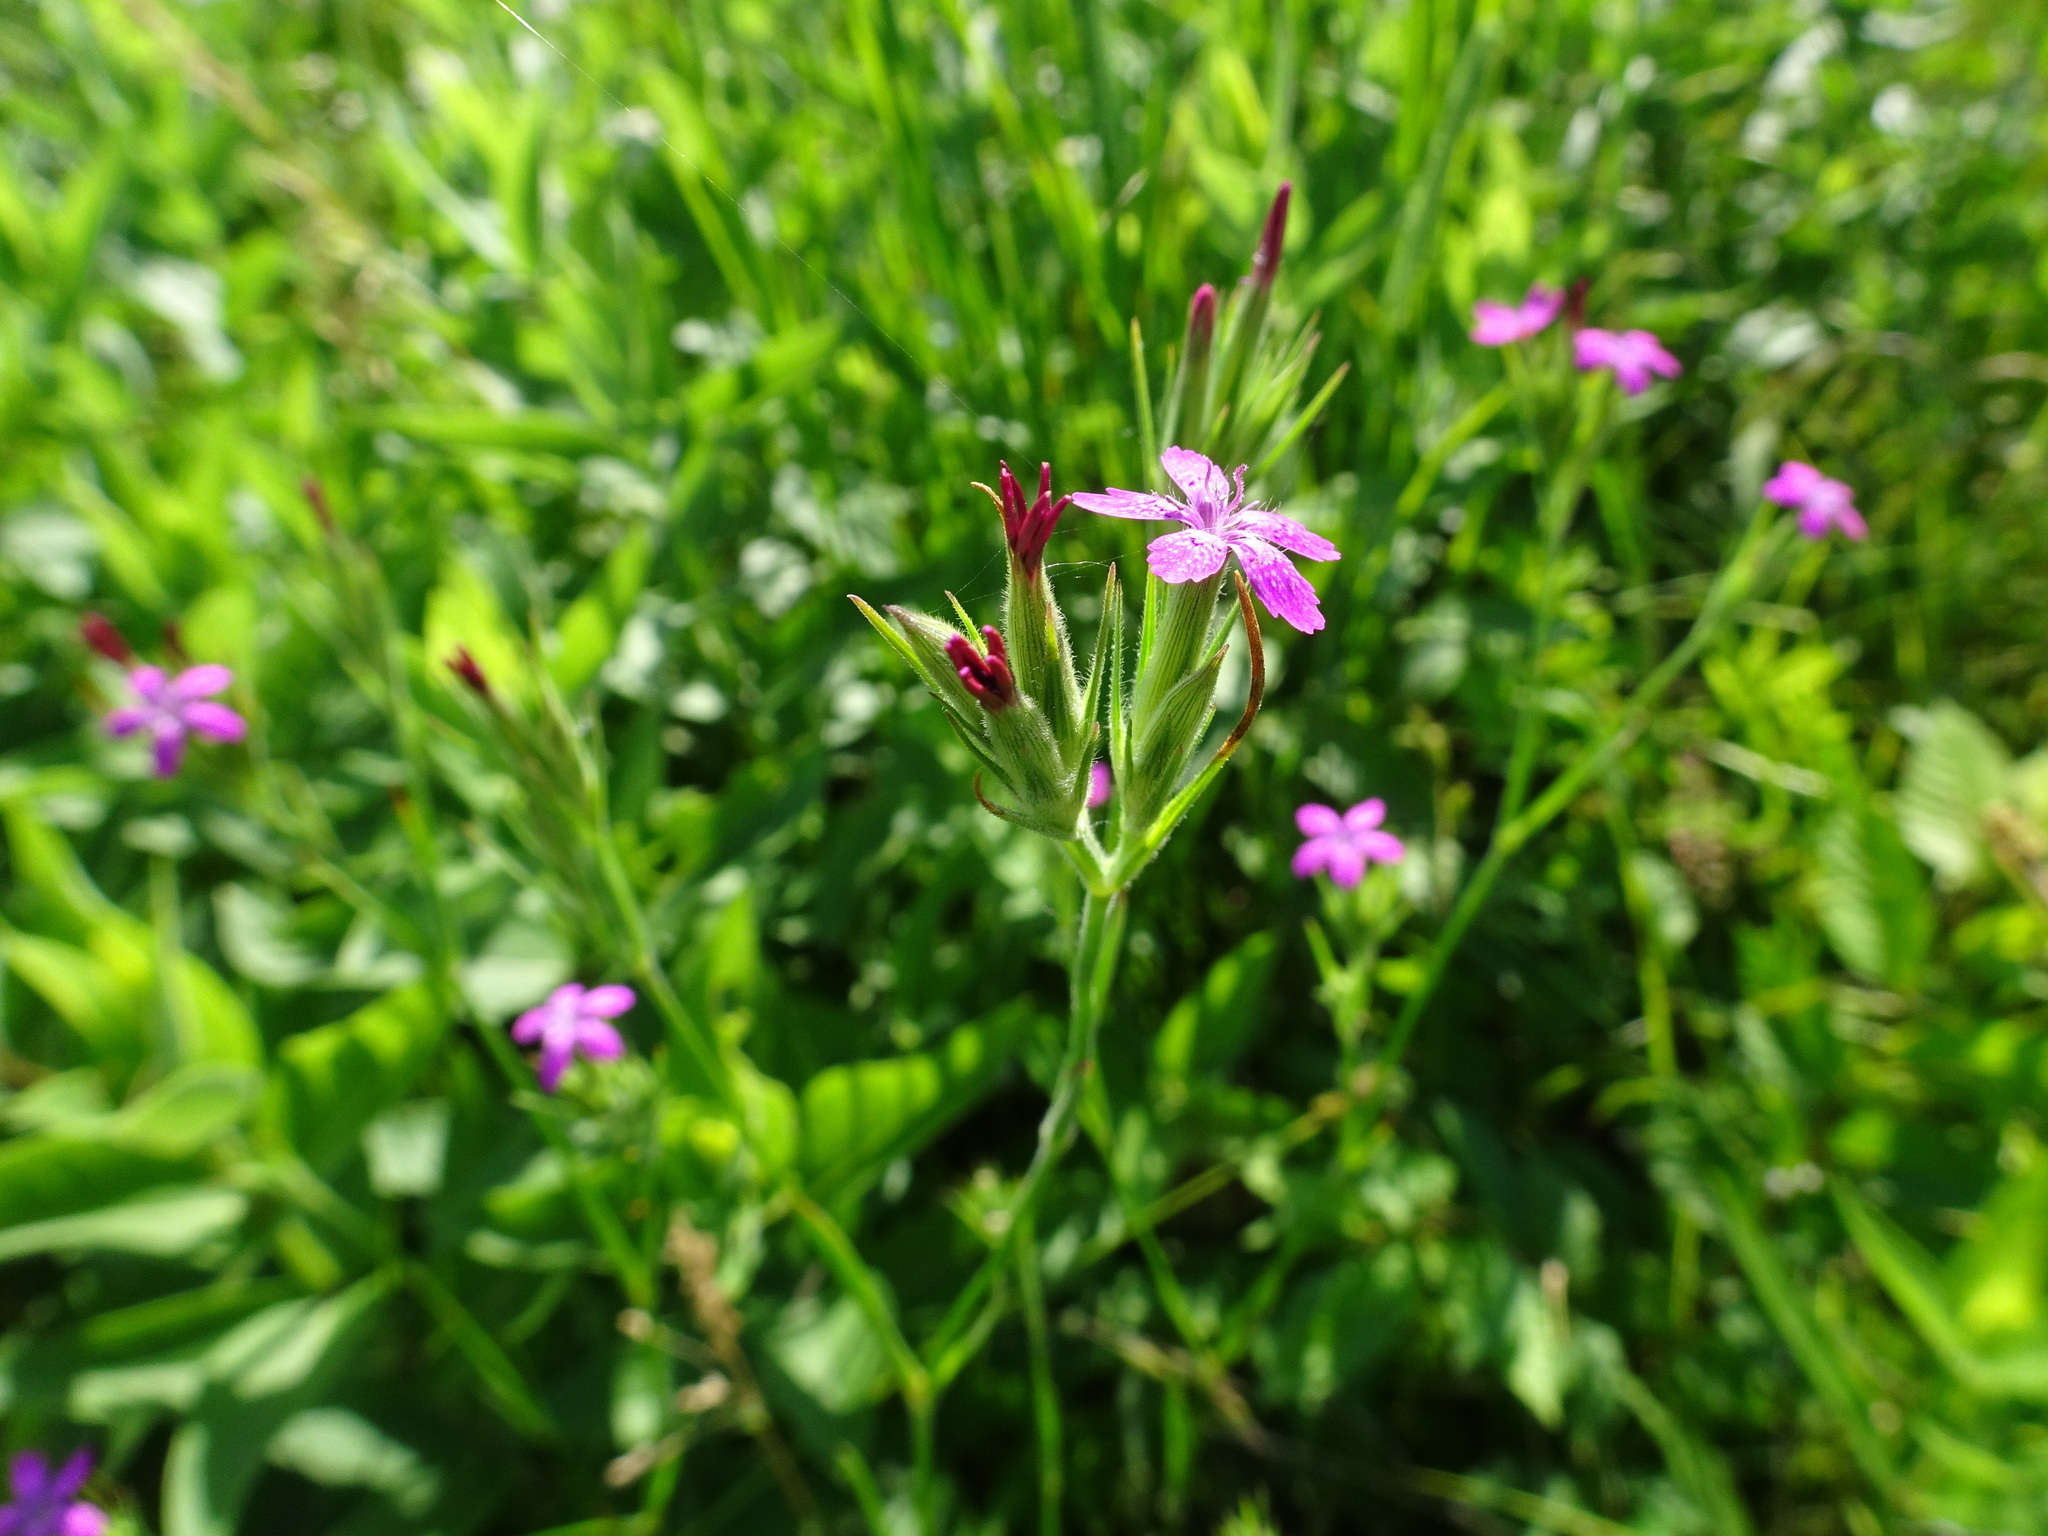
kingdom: Plantae
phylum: Tracheophyta
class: Magnoliopsida
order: Caryophyllales
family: Caryophyllaceae
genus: Dianthus
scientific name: Dianthus armeria
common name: Deptford pink
